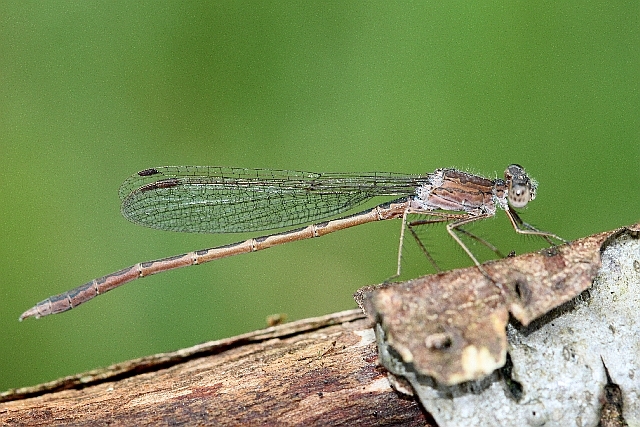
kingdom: Animalia
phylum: Arthropoda
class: Insecta
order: Odonata
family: Lestidae
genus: Sympecma
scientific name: Sympecma paedisca
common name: Siberian winter damsel
